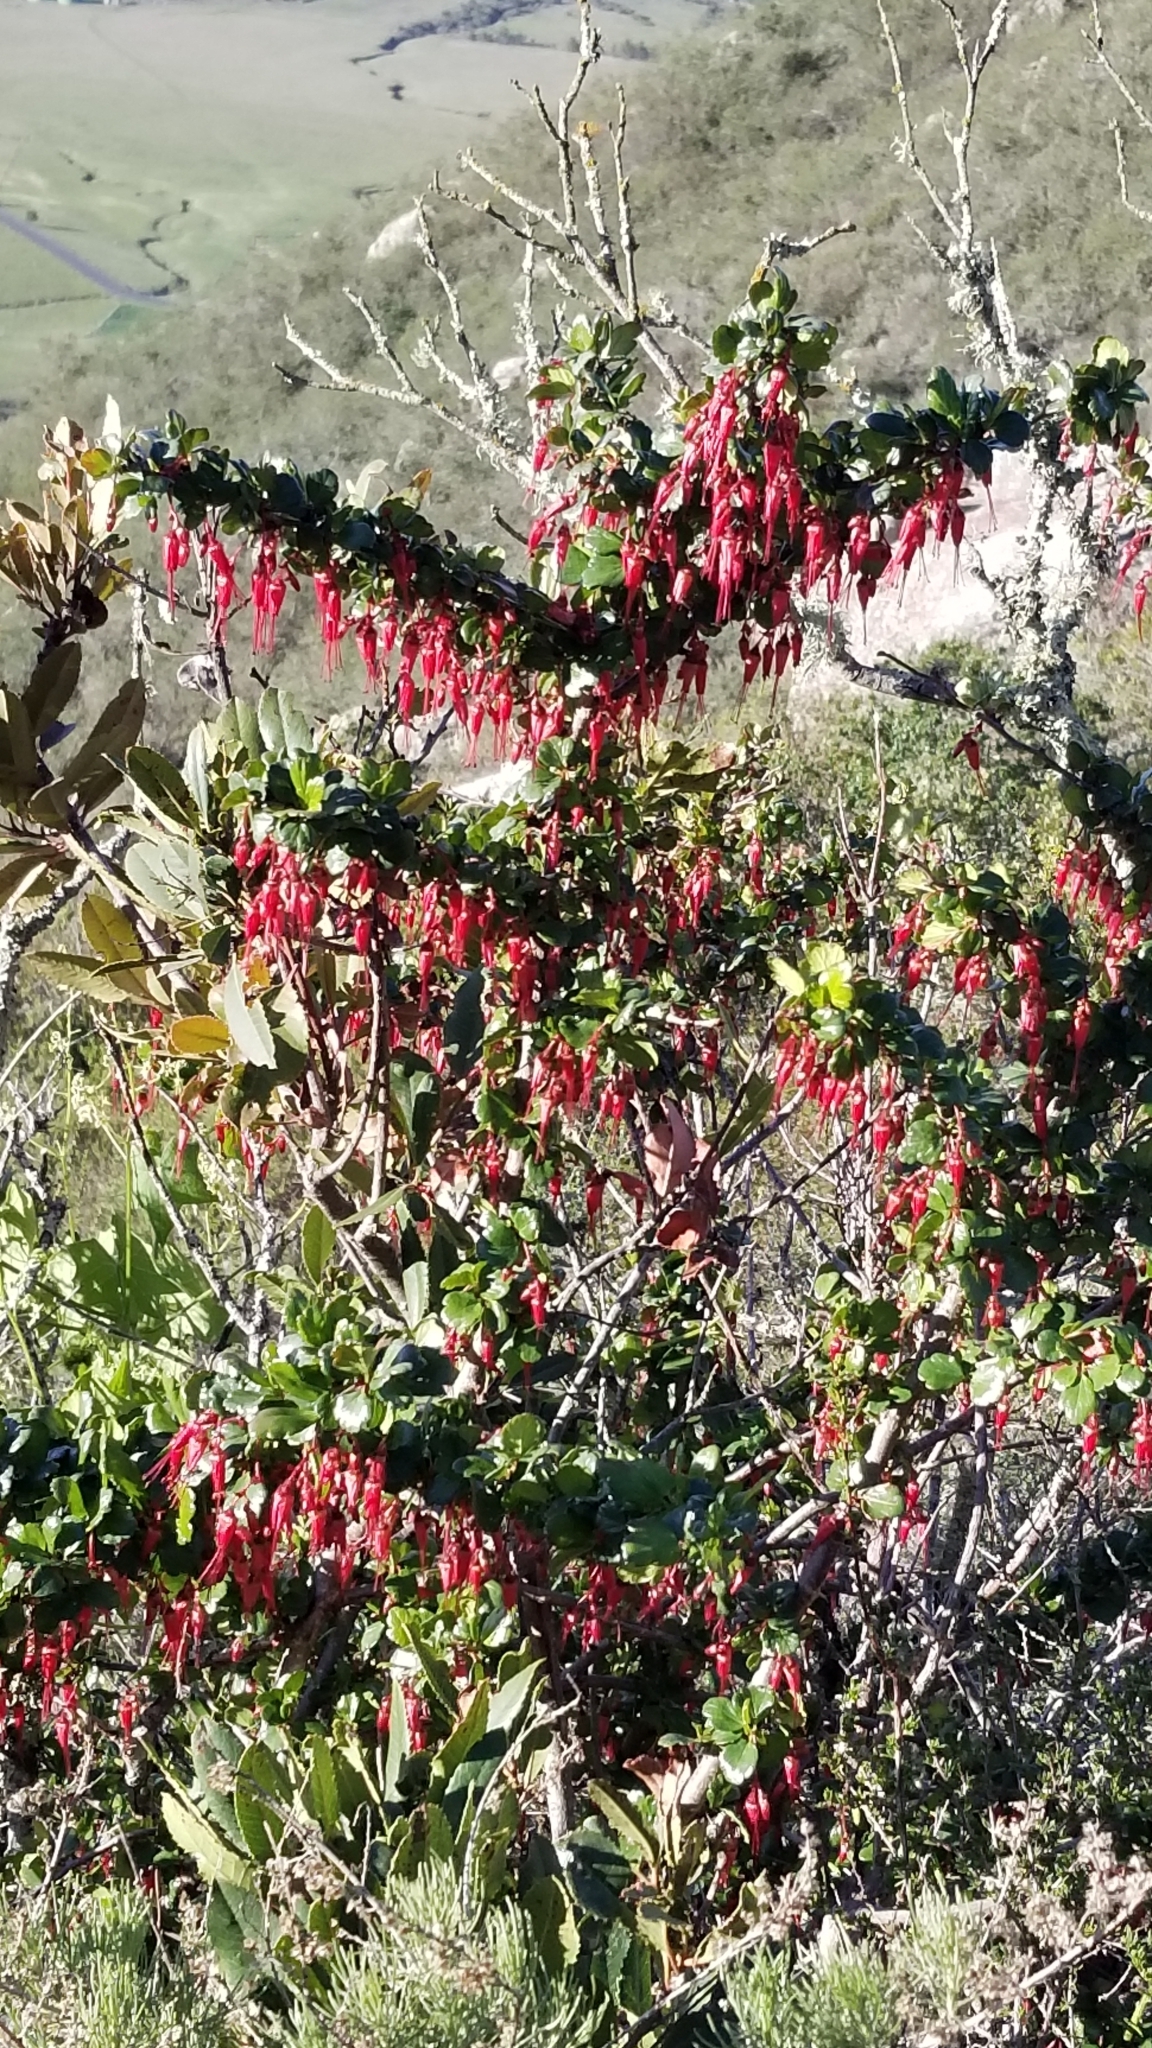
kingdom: Plantae
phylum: Tracheophyta
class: Magnoliopsida
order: Saxifragales
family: Grossulariaceae
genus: Ribes
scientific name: Ribes speciosum
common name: Fuchsia-flower gooseberry
